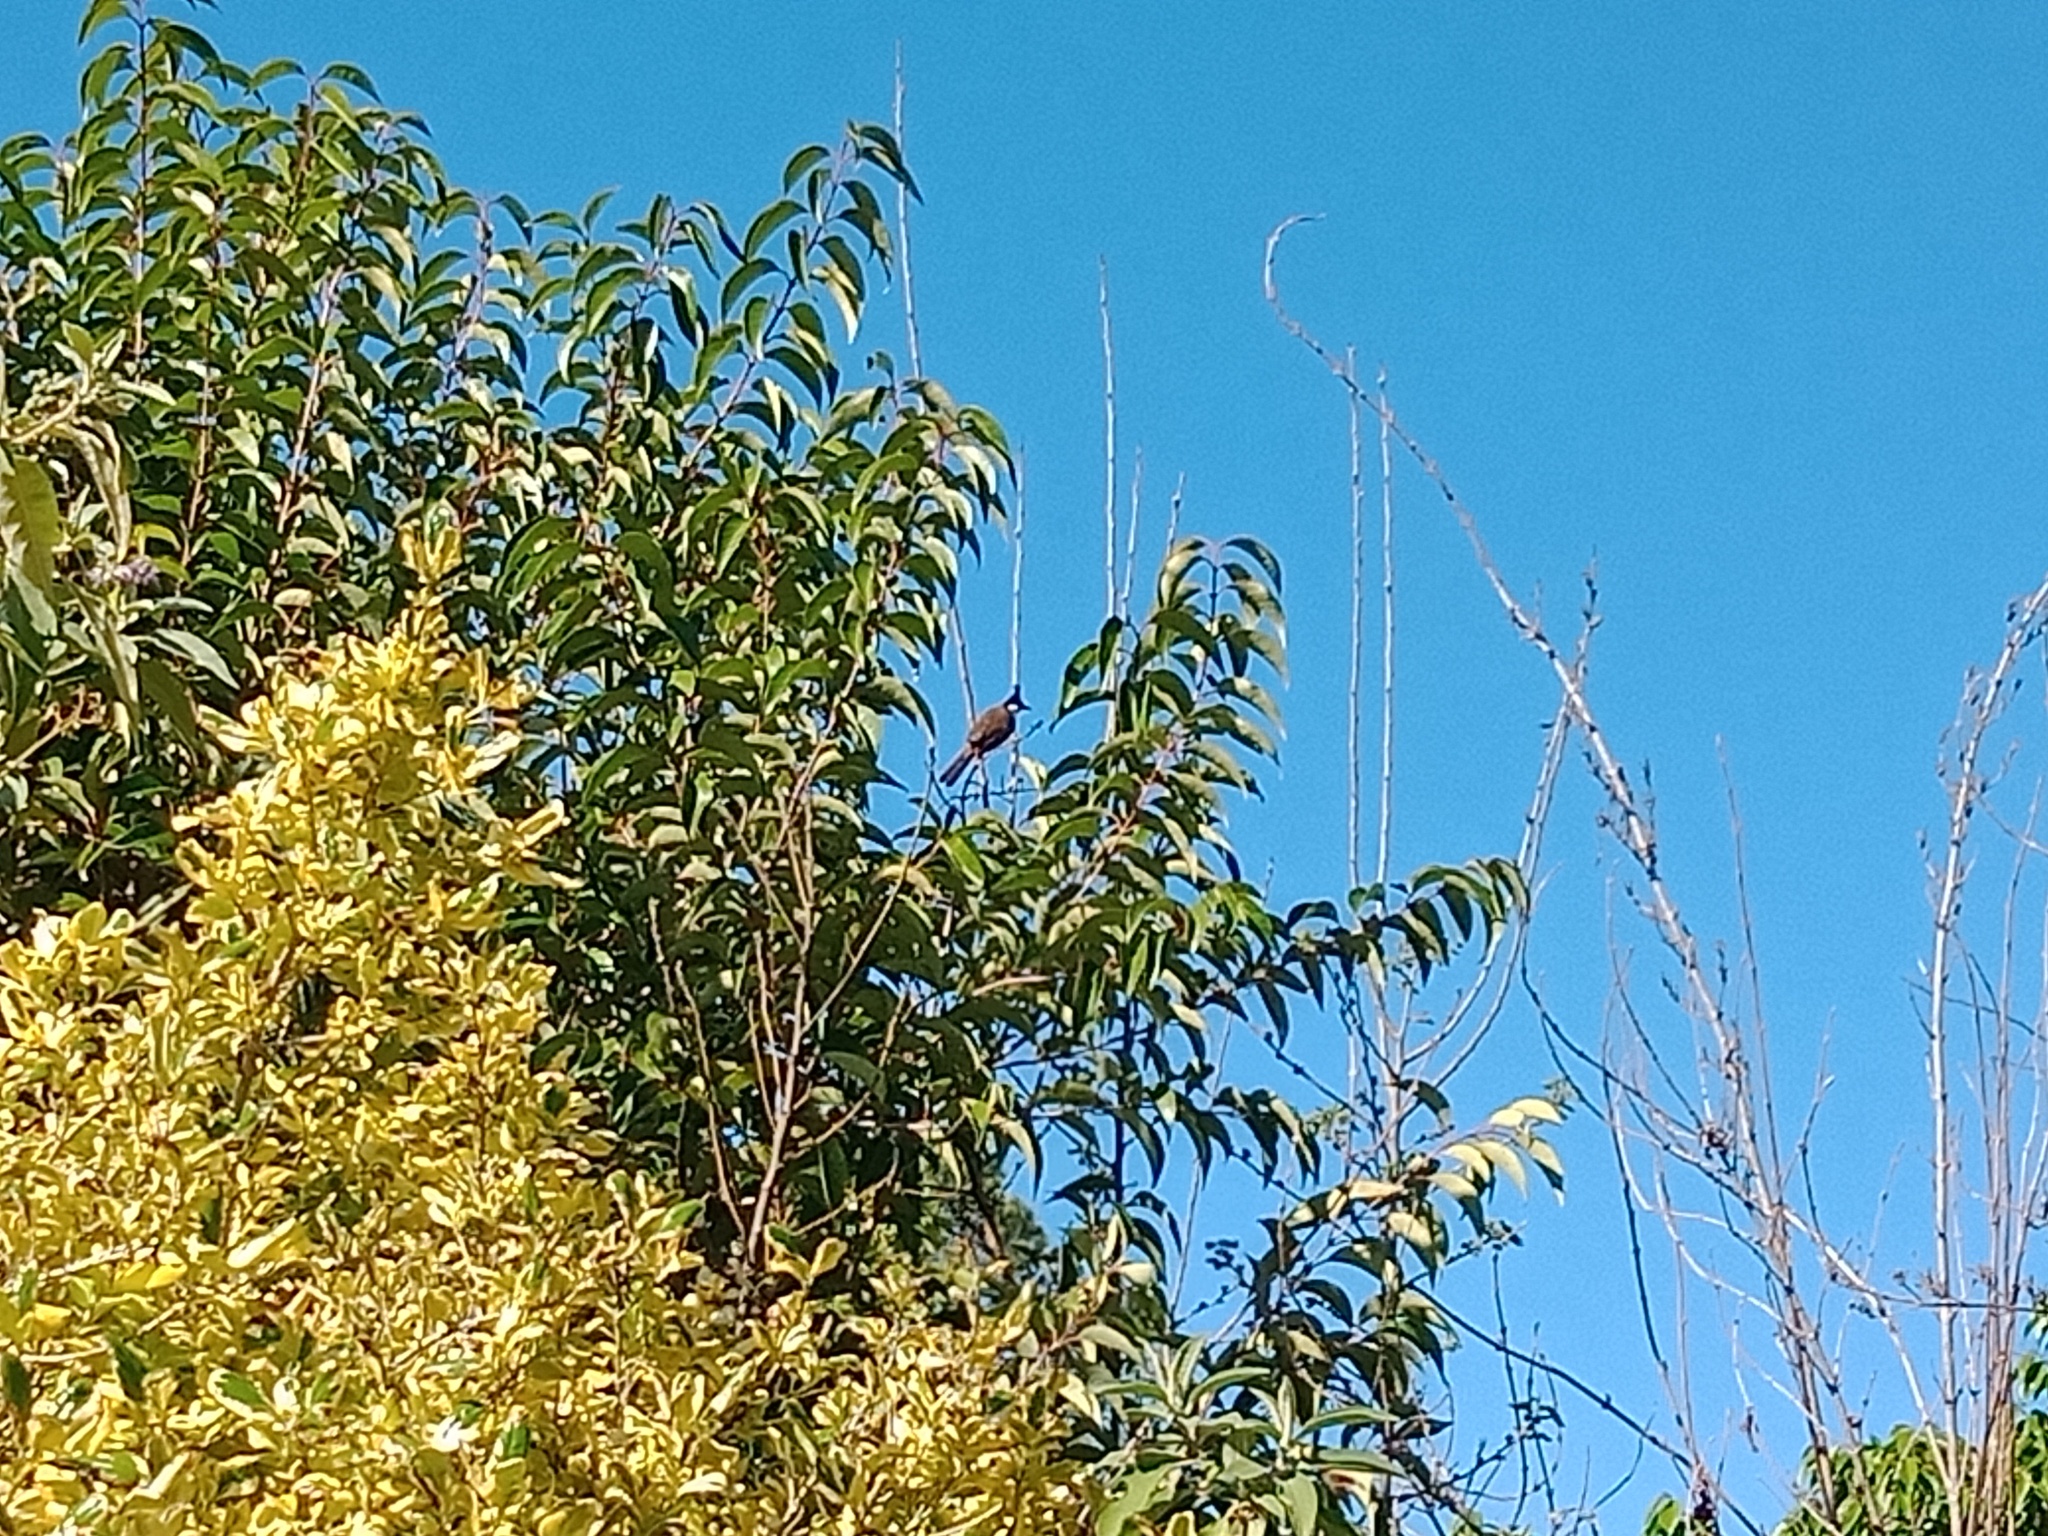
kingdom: Animalia
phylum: Chordata
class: Aves
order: Passeriformes
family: Pycnonotidae
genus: Pycnonotus
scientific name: Pycnonotus jocosus
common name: Red-whiskered bulbul
